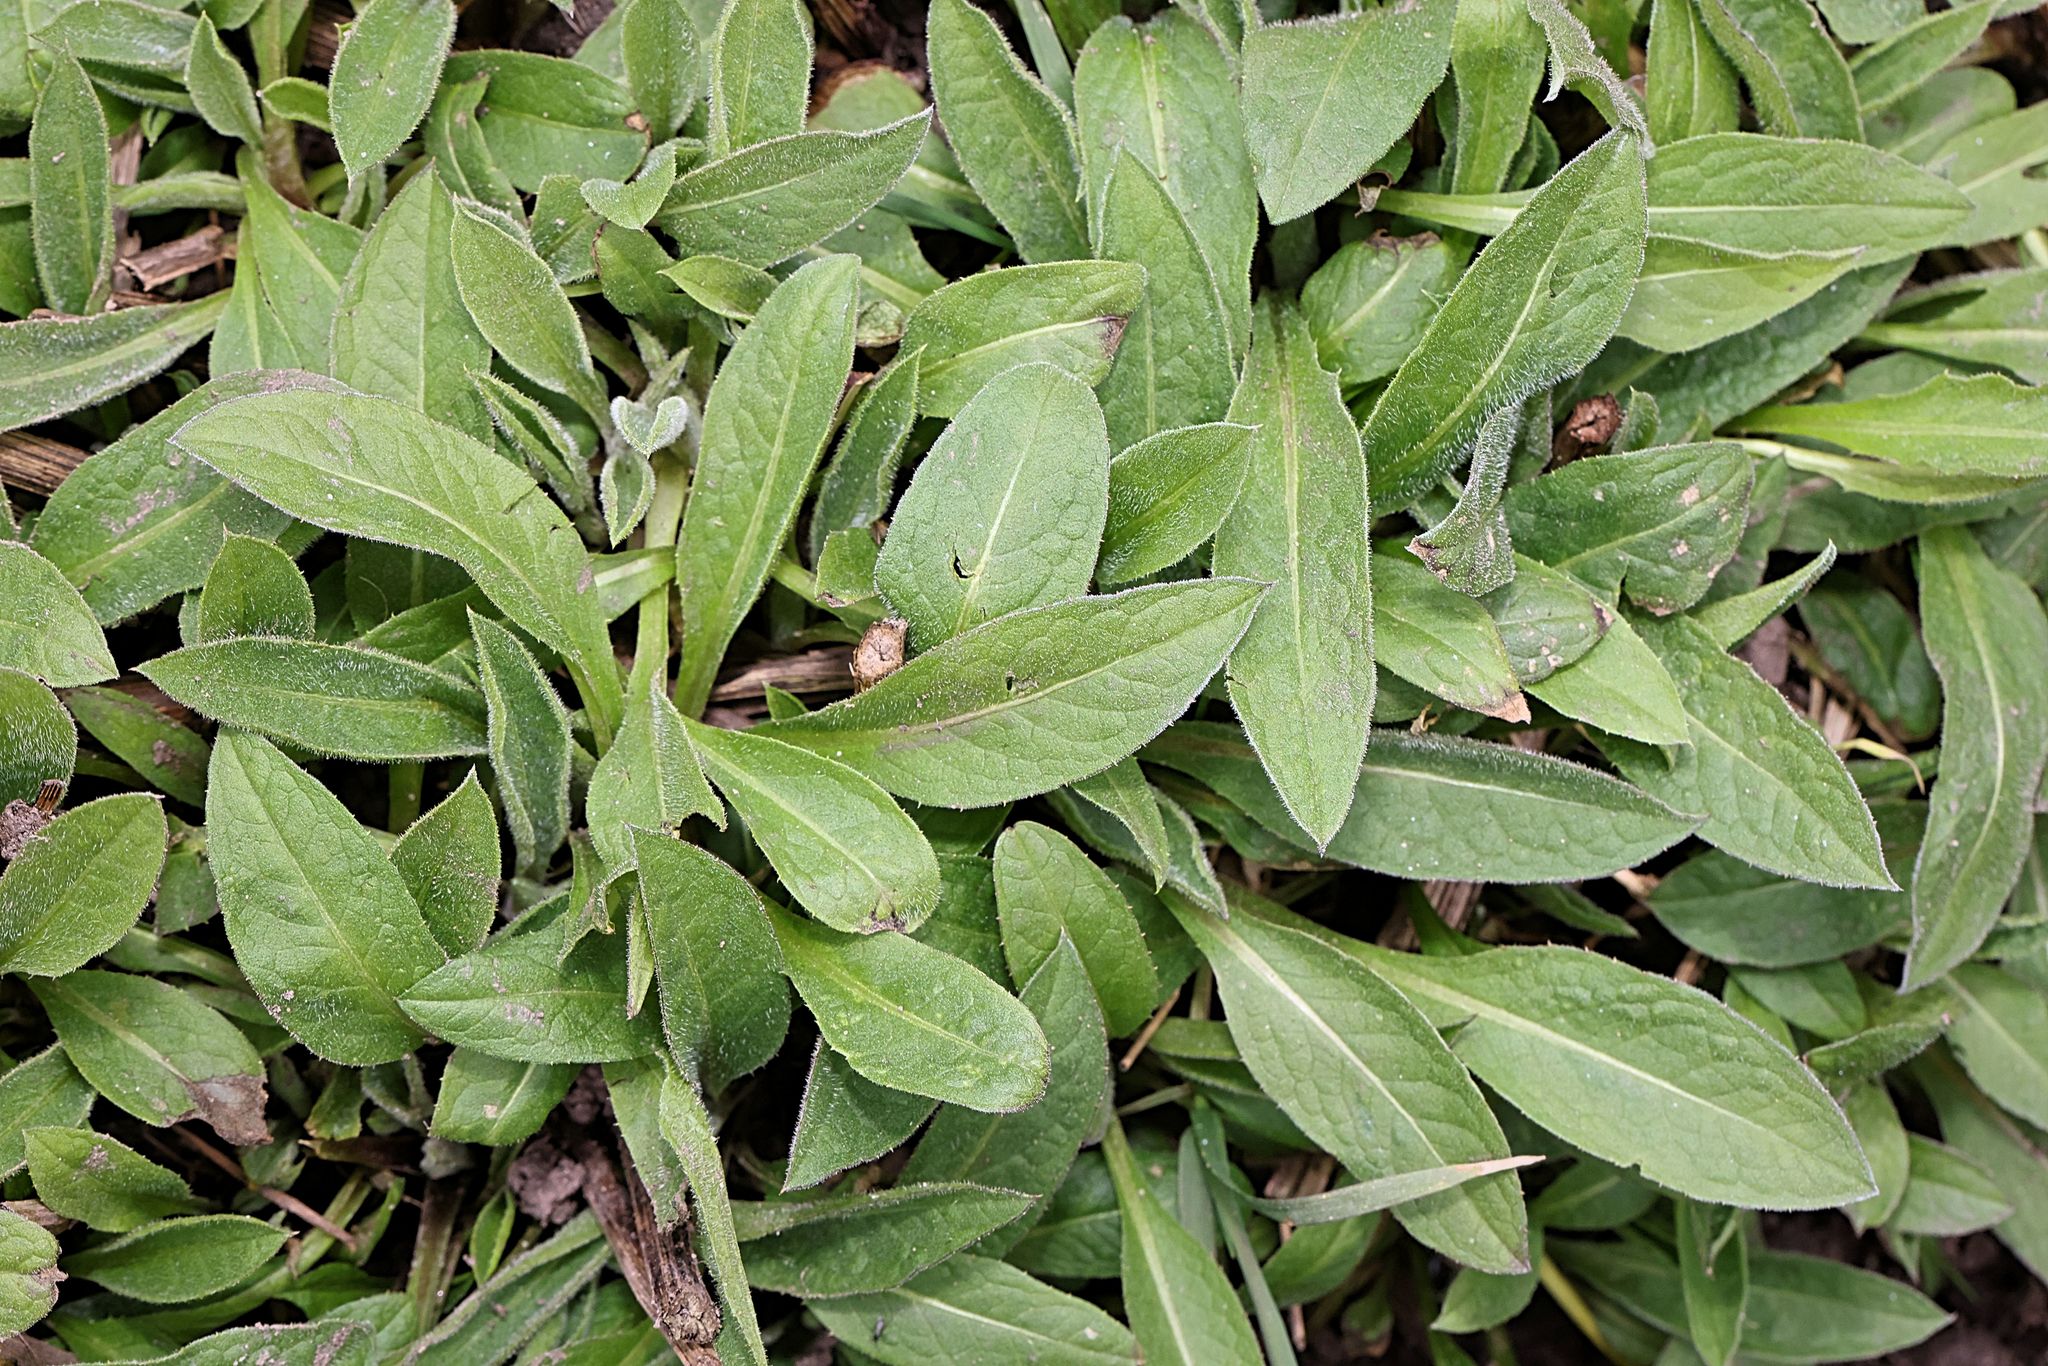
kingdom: Plantae
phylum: Tracheophyta
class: Magnoliopsida
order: Asterales
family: Asteraceae
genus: Centaurea
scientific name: Centaurea nigra
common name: Lesser knapweed
